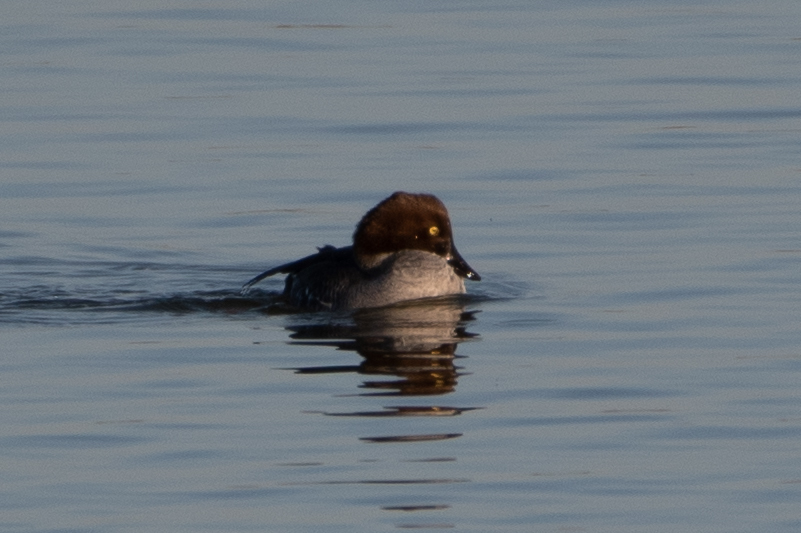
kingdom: Animalia
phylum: Chordata
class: Aves
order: Anseriformes
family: Anatidae
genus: Bucephala
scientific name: Bucephala clangula
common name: Common goldeneye
